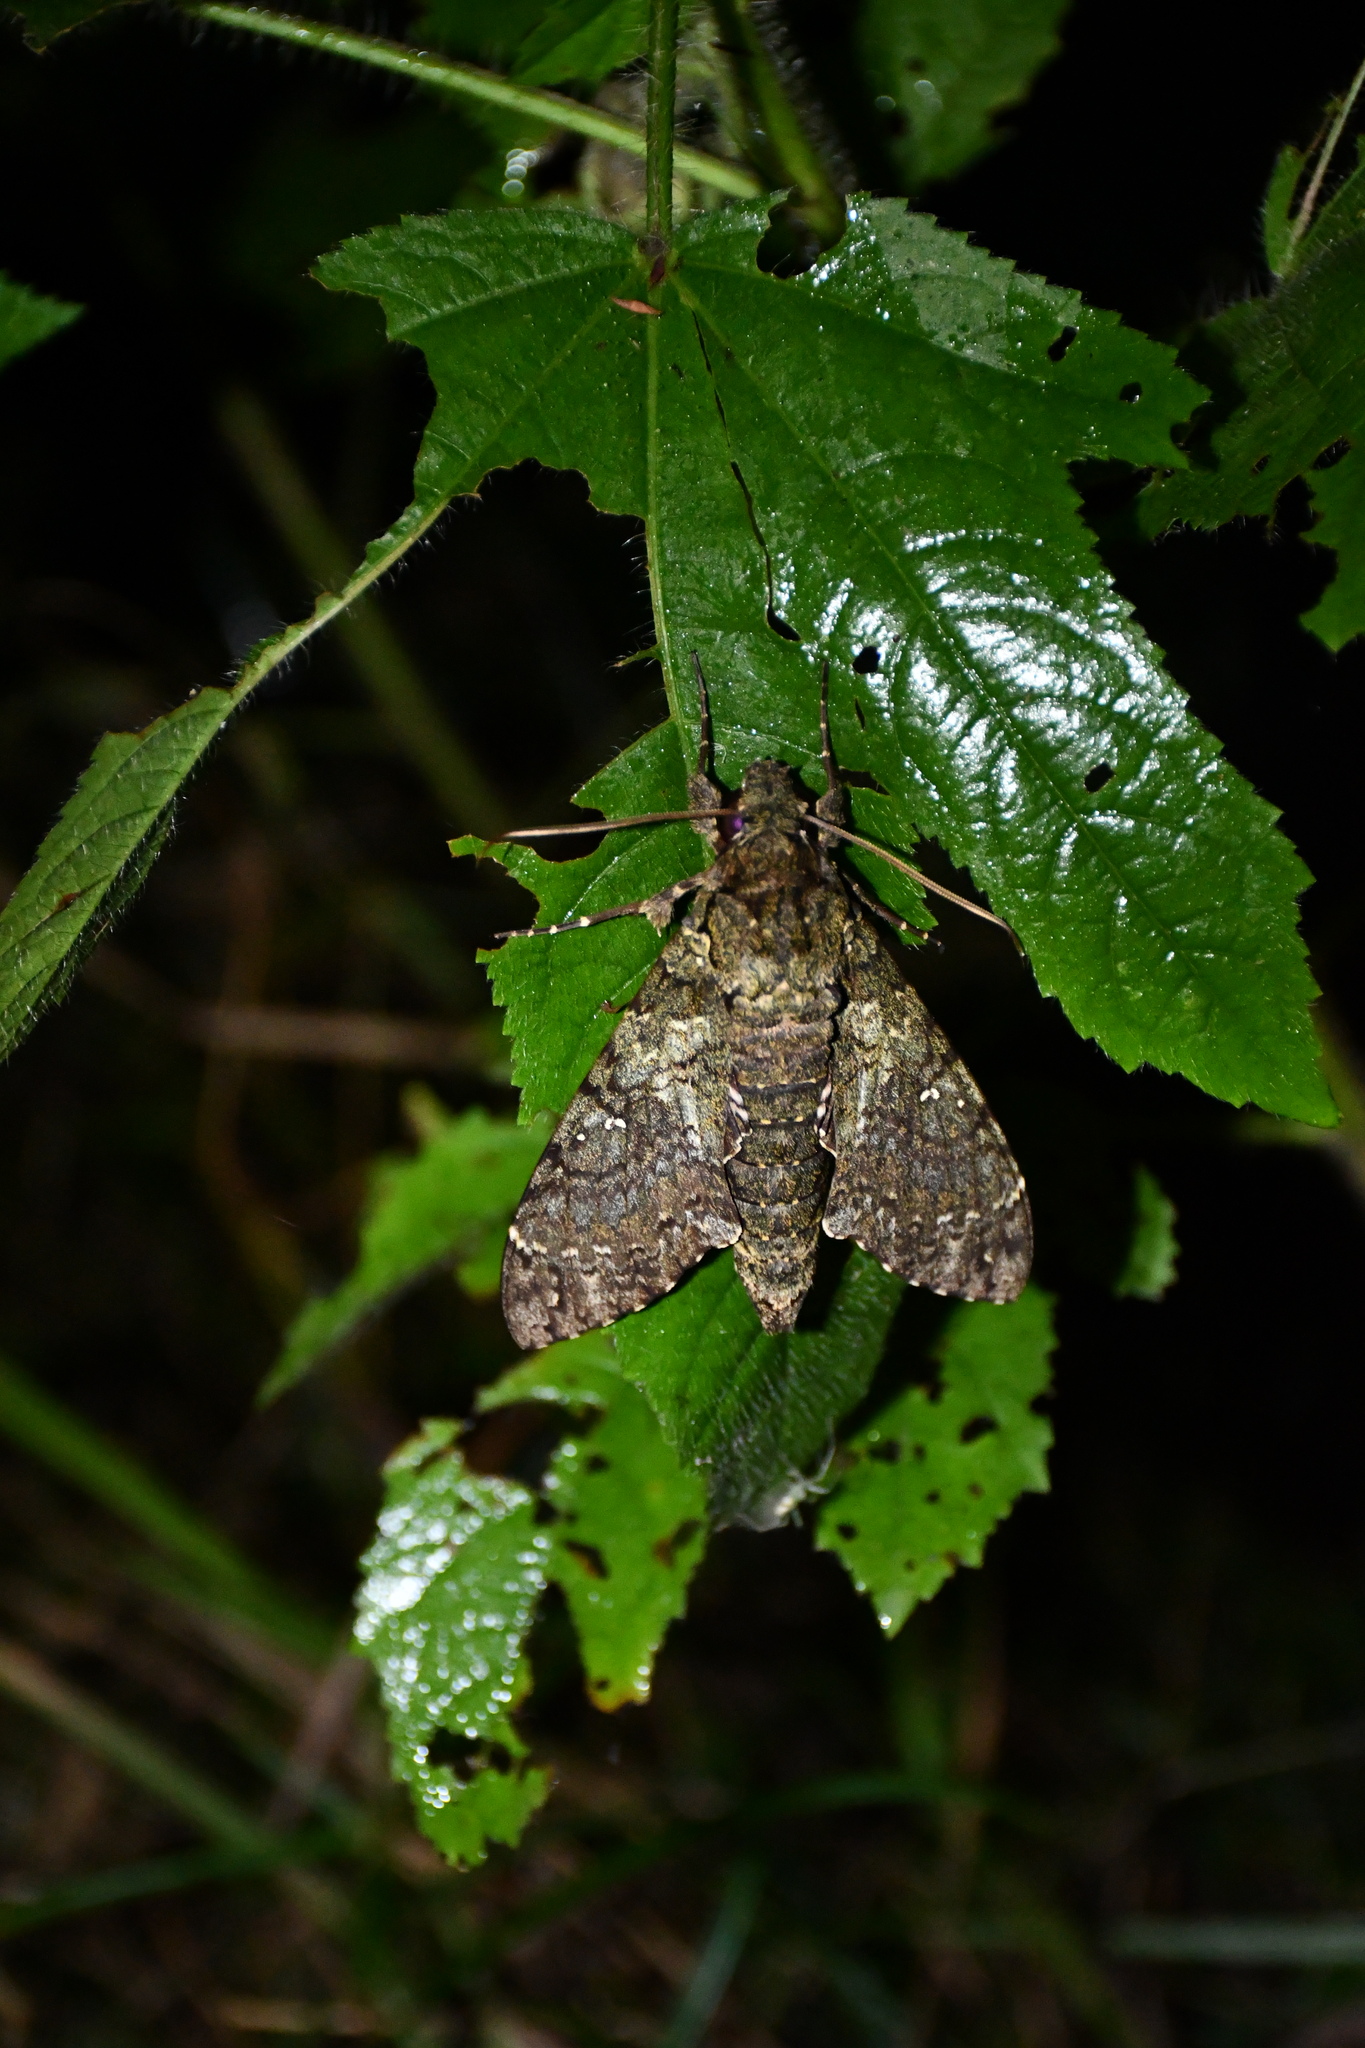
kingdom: Animalia
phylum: Arthropoda
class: Insecta
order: Lepidoptera
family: Sphingidae
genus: Cocytius
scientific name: Cocytius duponchel
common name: Duponchel's sphinx
